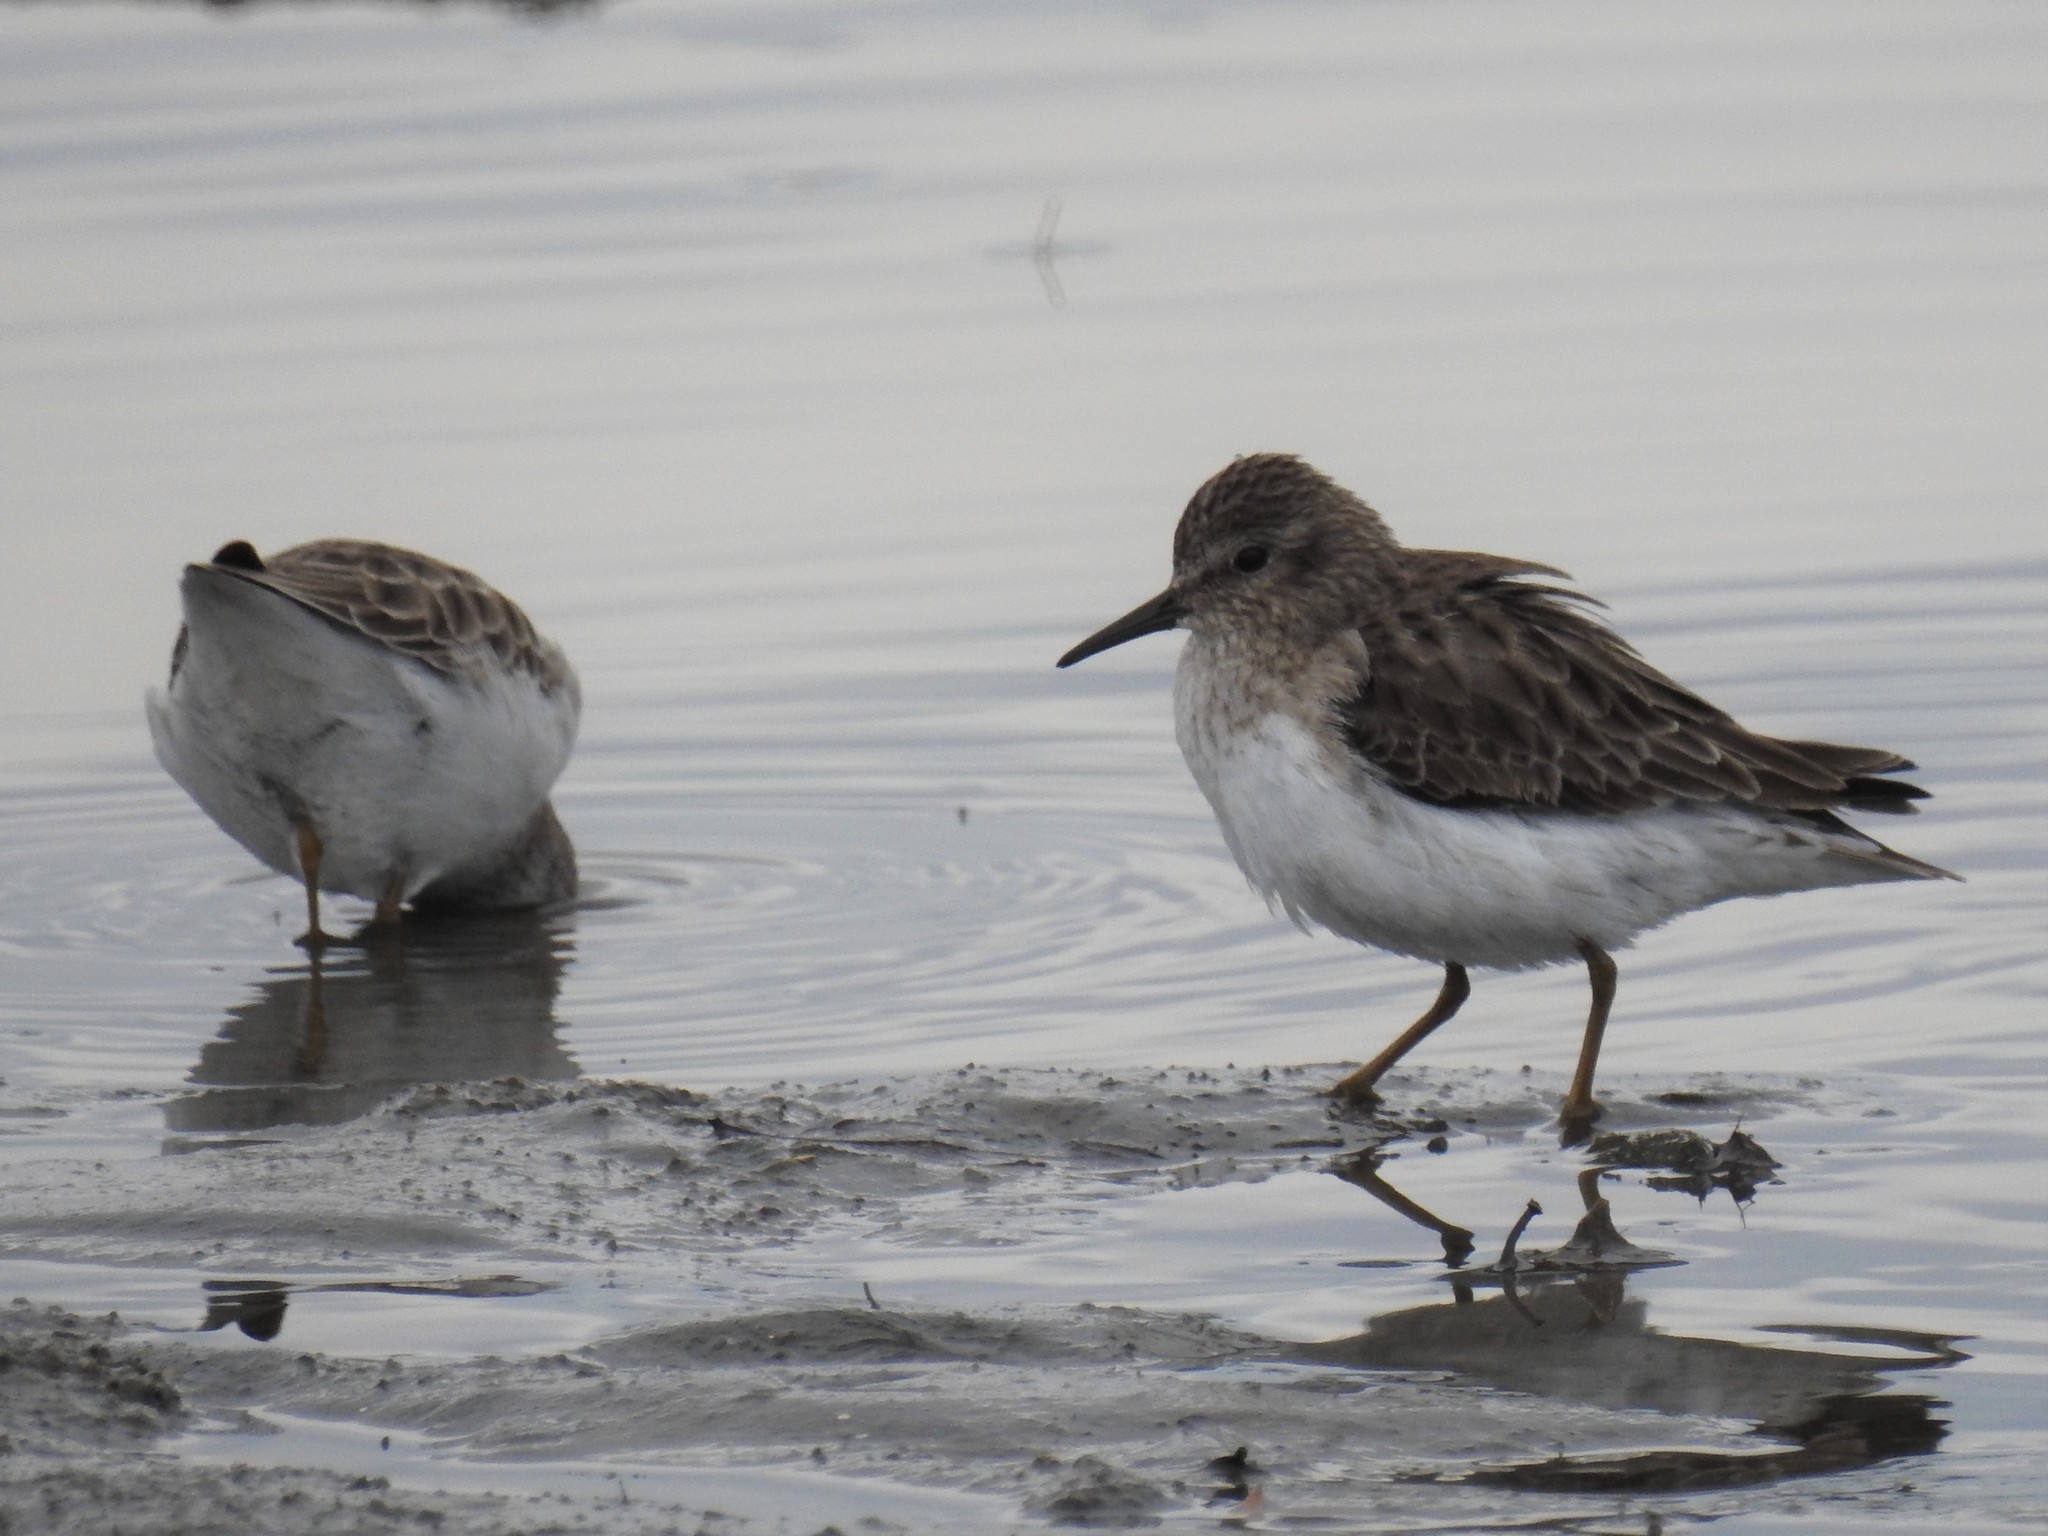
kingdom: Animalia
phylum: Chordata
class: Aves
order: Charadriiformes
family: Scolopacidae
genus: Calidris
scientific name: Calidris minutilla
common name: Least sandpiper
